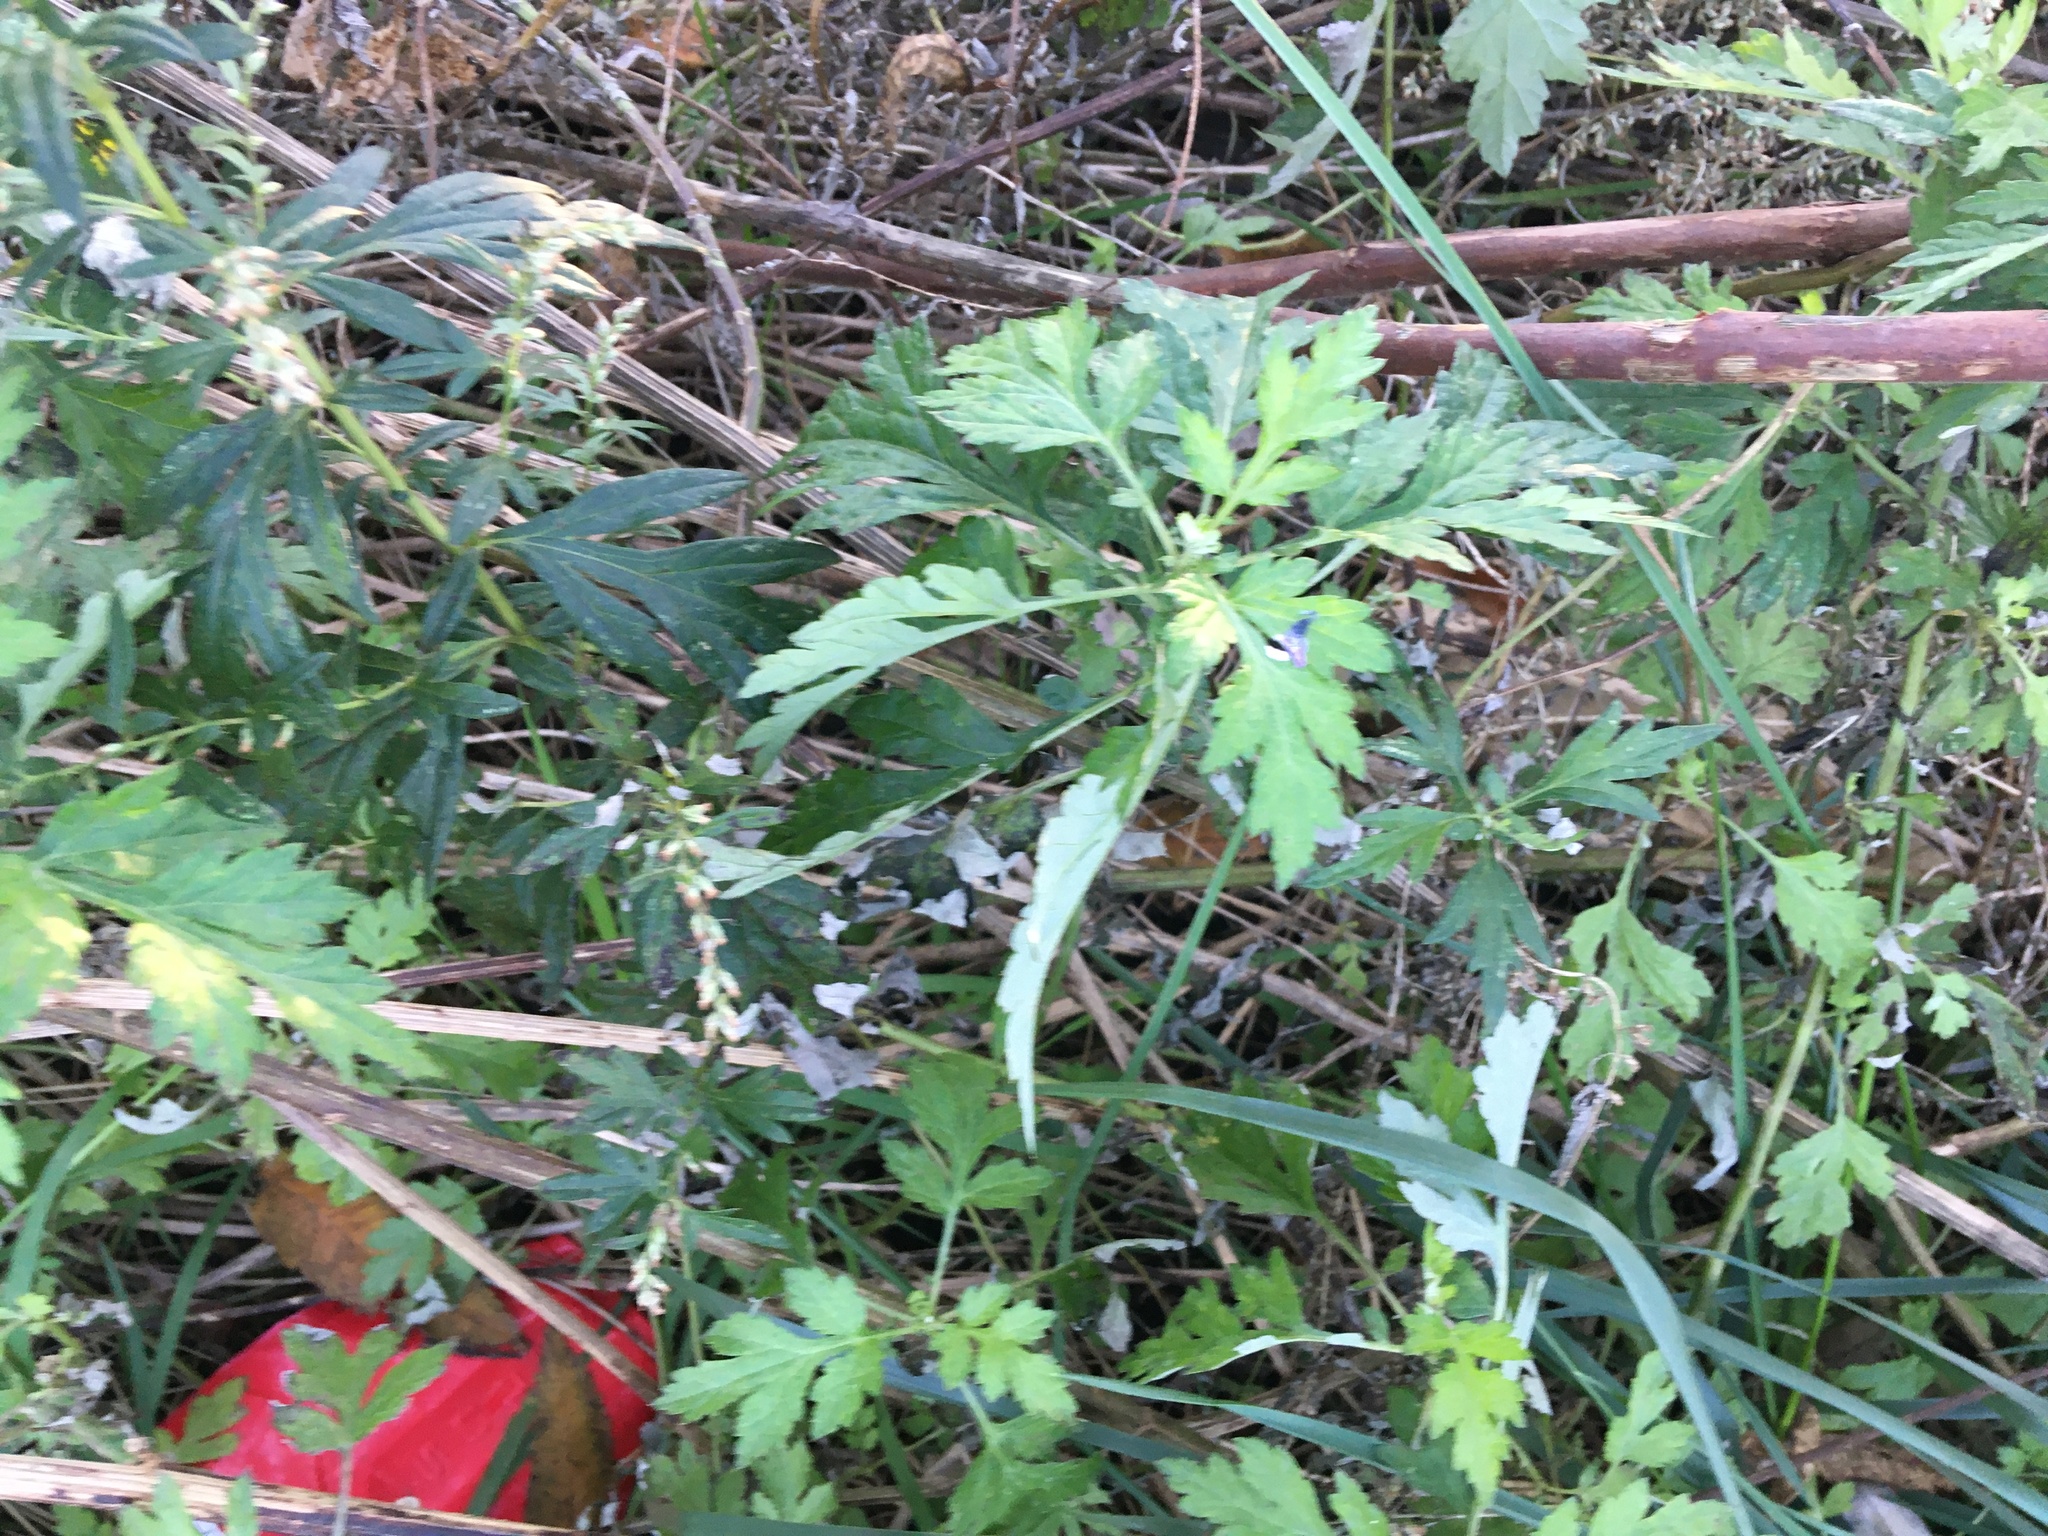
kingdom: Plantae
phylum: Tracheophyta
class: Magnoliopsida
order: Asterales
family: Asteraceae
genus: Artemisia
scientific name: Artemisia vulgaris
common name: Mugwort
